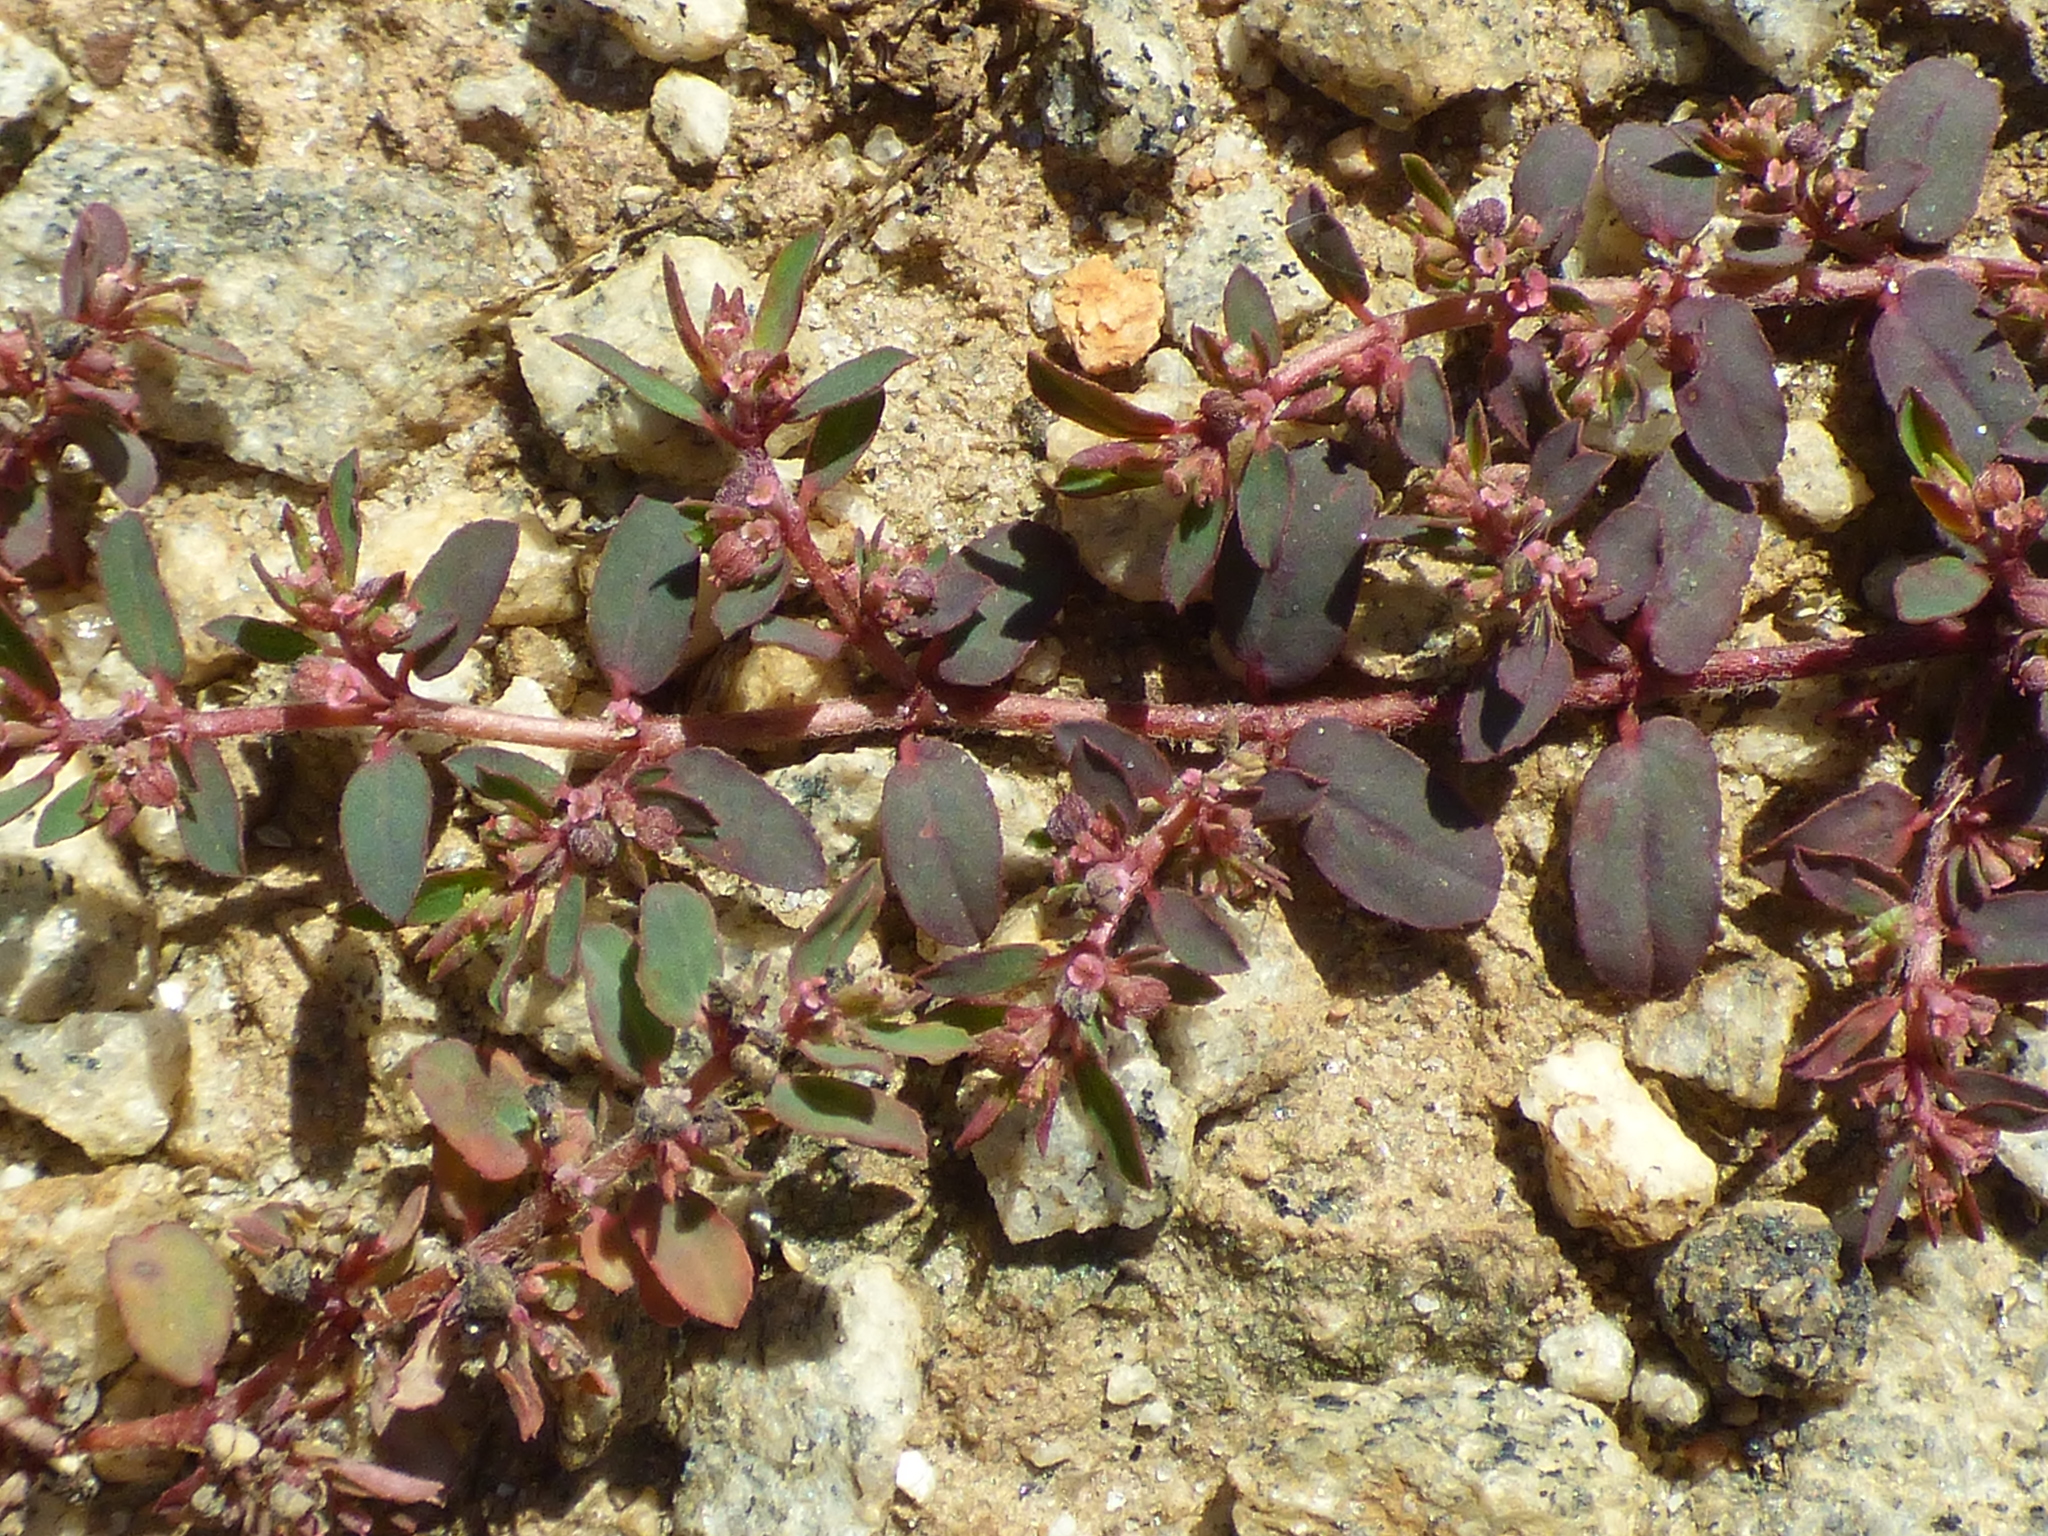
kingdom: Plantae
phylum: Tracheophyta
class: Magnoliopsida
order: Malpighiales
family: Euphorbiaceae
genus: Euphorbia
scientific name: Euphorbia maculata
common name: Spotted spurge
